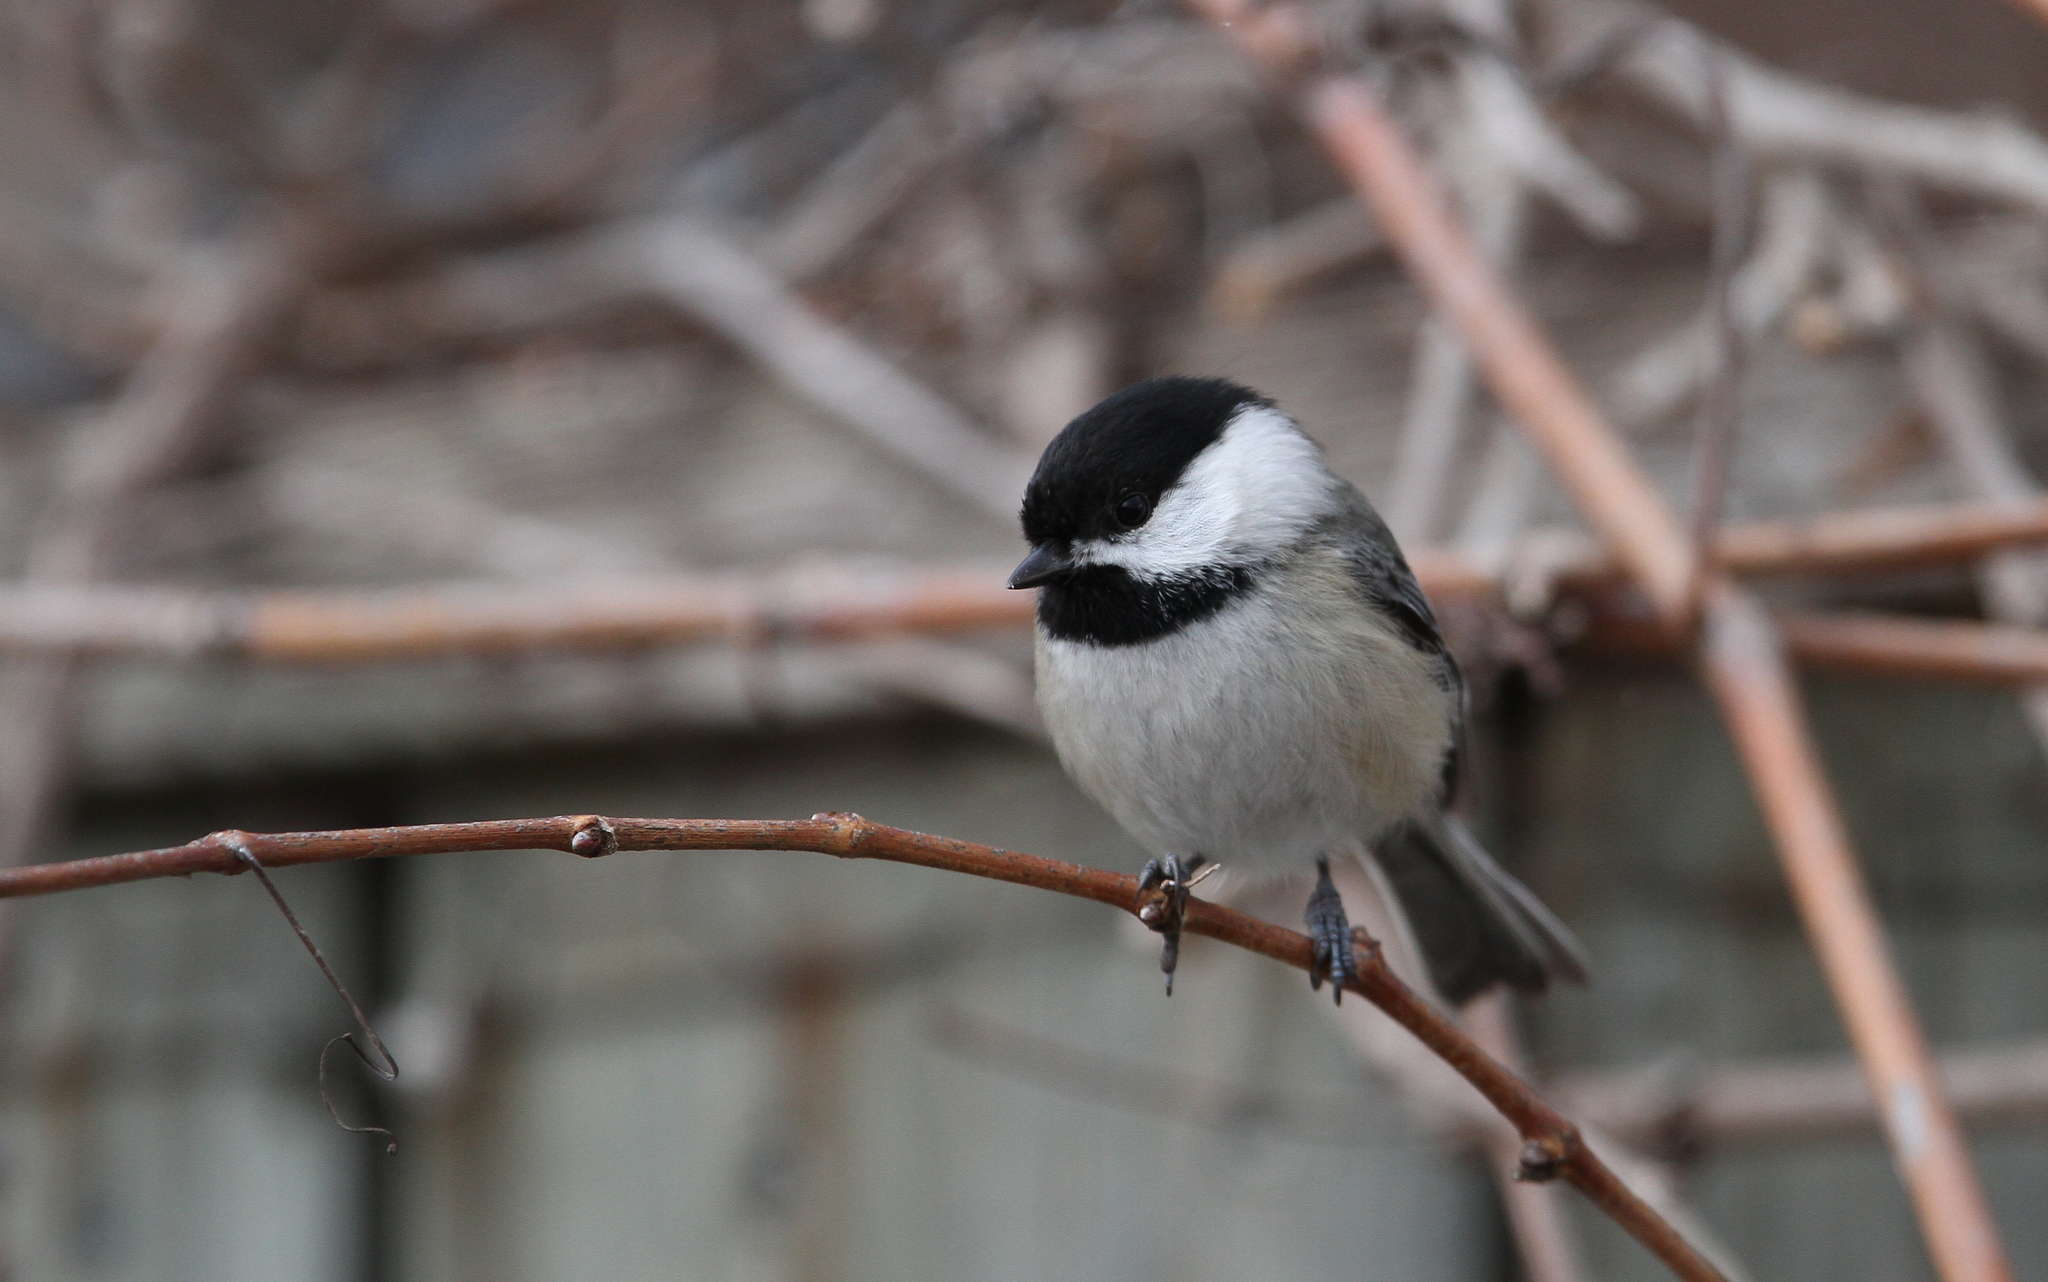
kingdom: Animalia
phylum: Chordata
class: Aves
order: Passeriformes
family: Paridae
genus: Poecile
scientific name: Poecile atricapillus
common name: Black-capped chickadee
